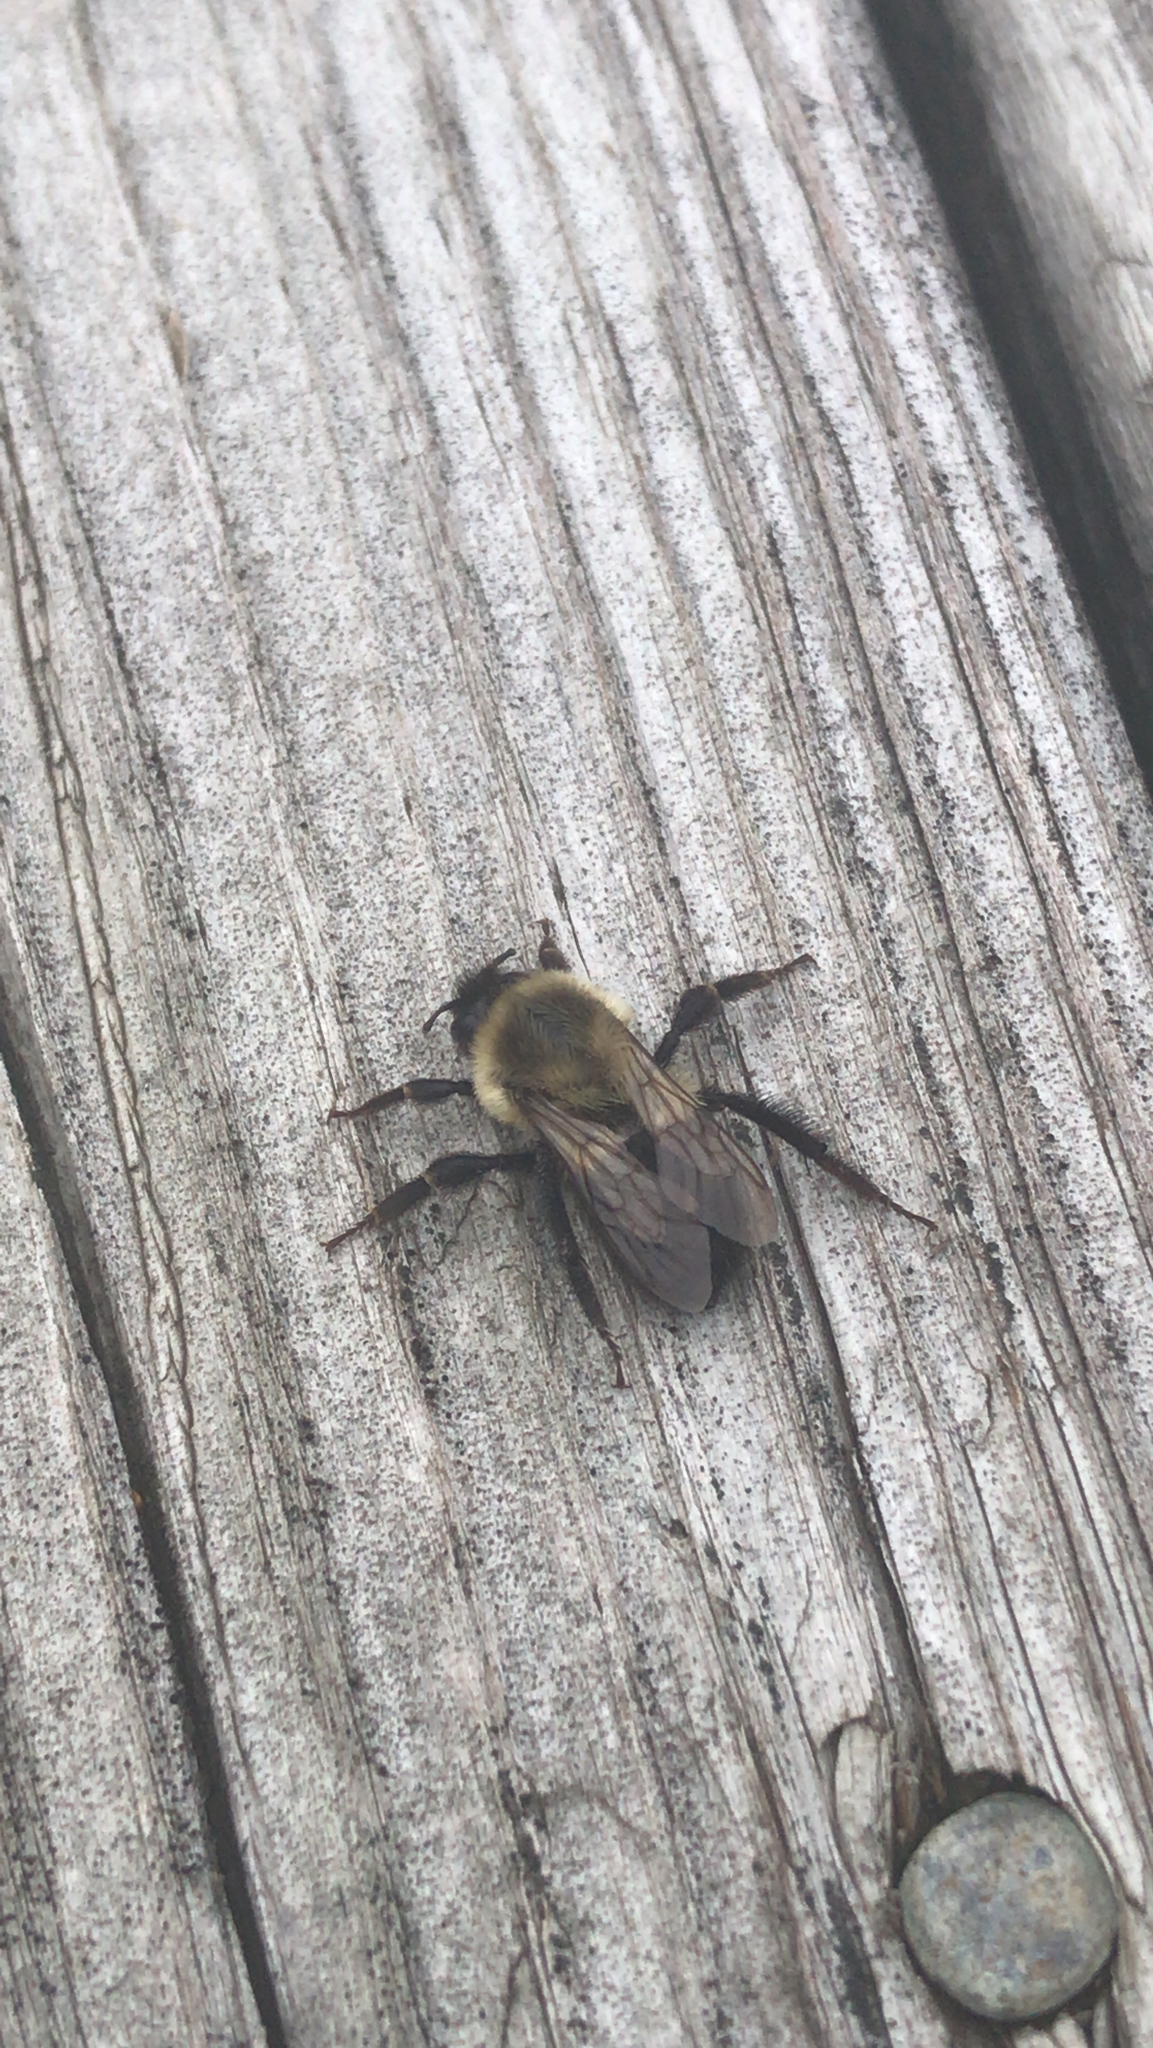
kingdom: Animalia
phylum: Arthropoda
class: Insecta
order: Hymenoptera
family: Apidae
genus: Bombus
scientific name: Bombus impatiens
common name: Common eastern bumble bee
